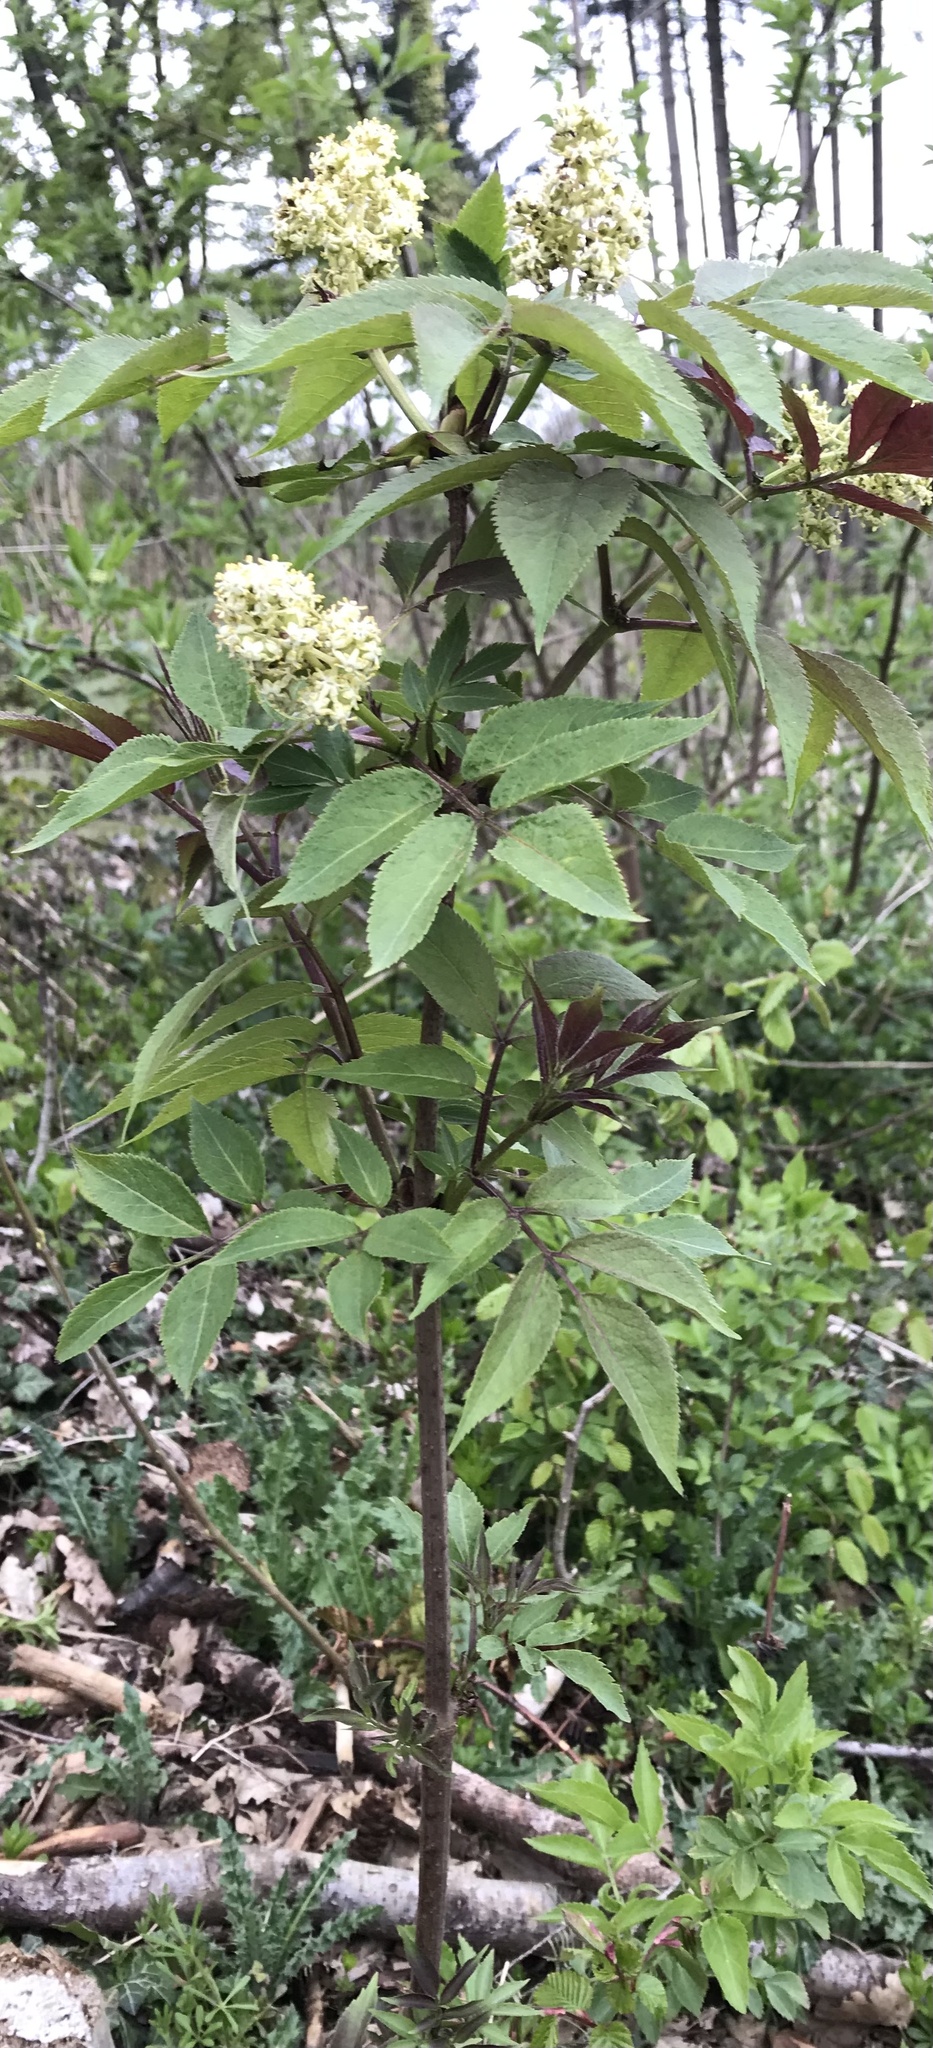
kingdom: Plantae
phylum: Tracheophyta
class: Magnoliopsida
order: Dipsacales
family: Viburnaceae
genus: Sambucus
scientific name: Sambucus racemosa
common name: Red-berried elder
